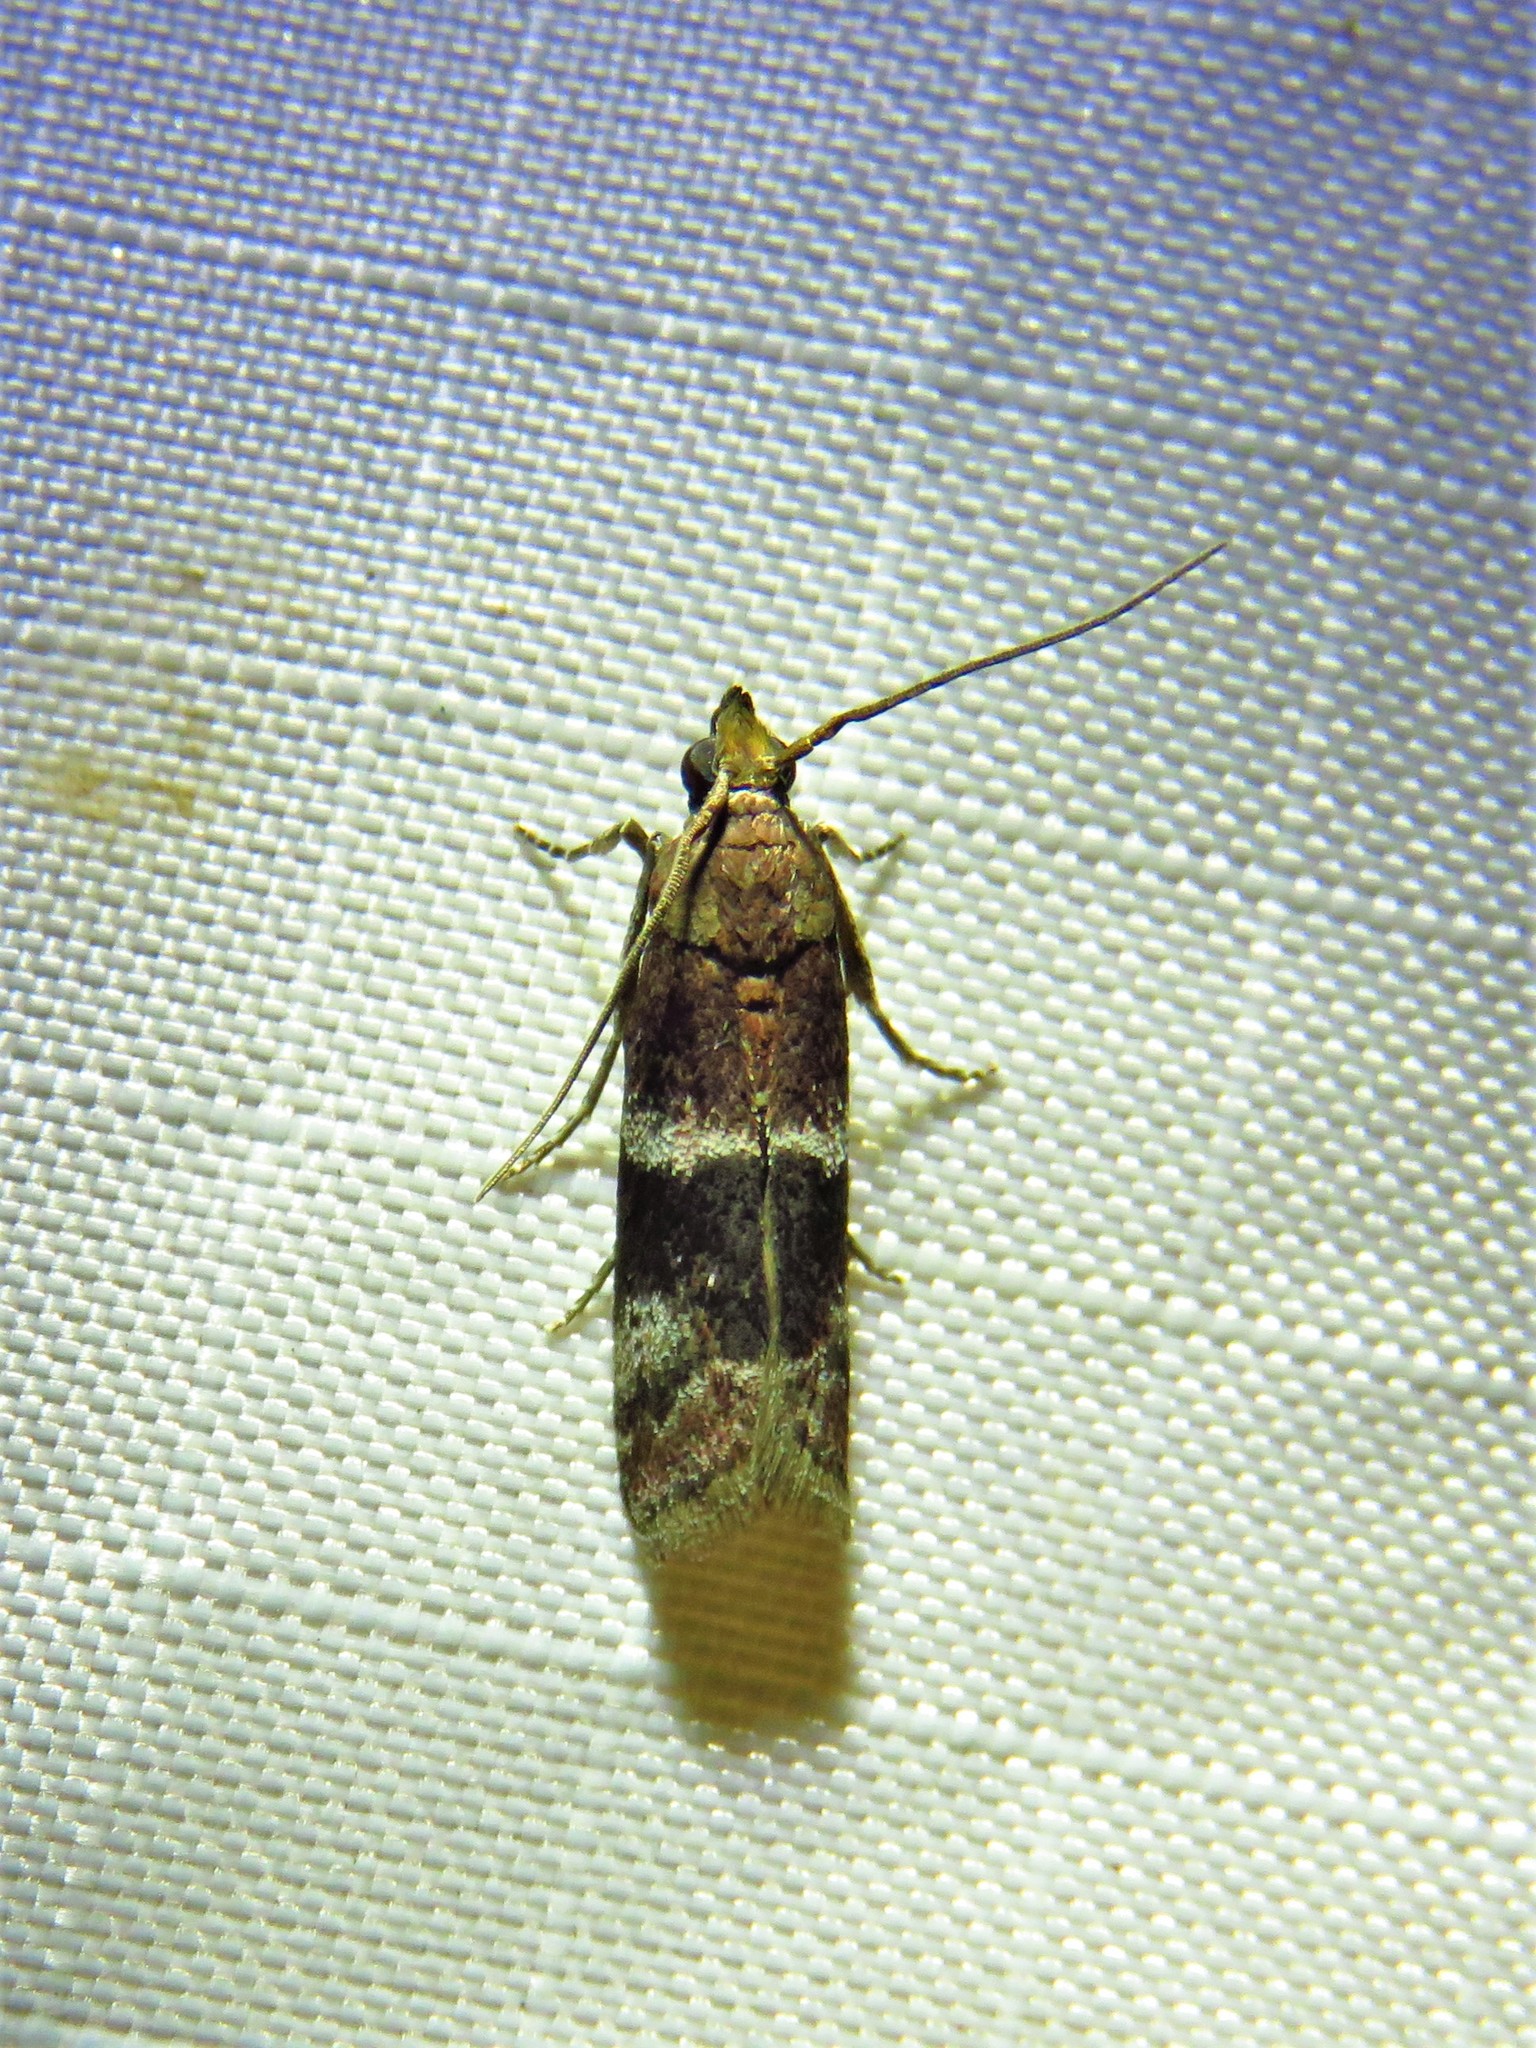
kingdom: Animalia
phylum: Arthropoda
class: Insecta
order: Lepidoptera
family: Pyralidae
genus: Moodna
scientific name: Moodna ostrinella
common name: Darker moodna moth
